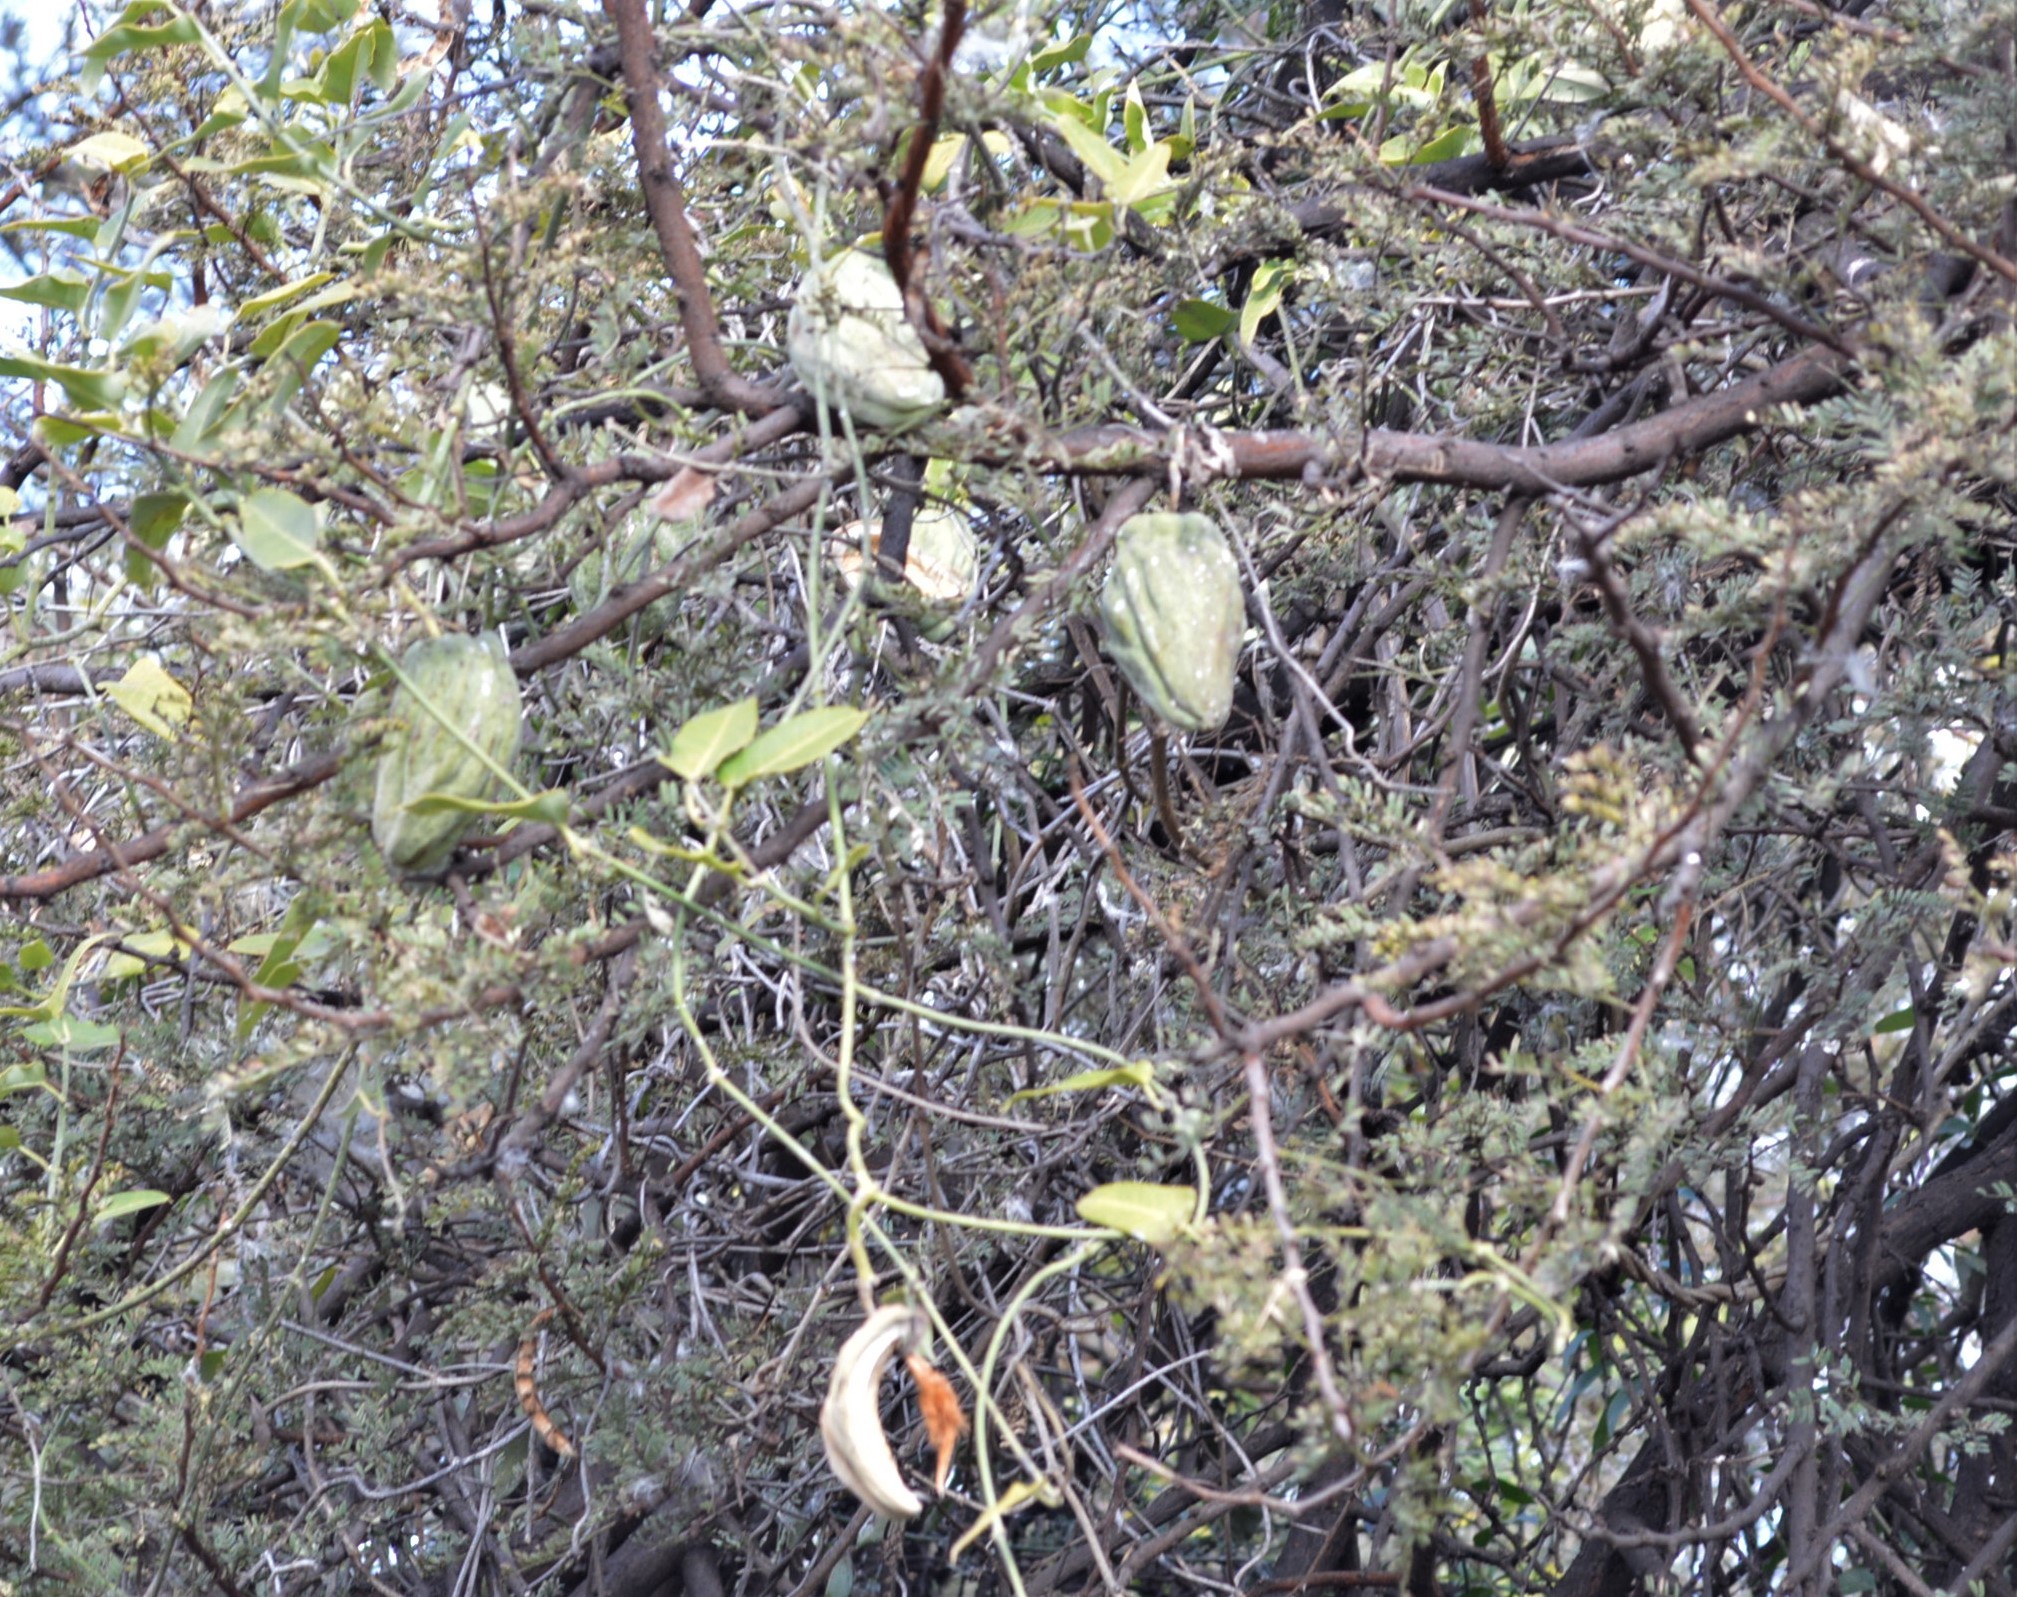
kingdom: Plantae
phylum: Tracheophyta
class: Magnoliopsida
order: Gentianales
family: Apocynaceae
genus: Araujia
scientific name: Araujia sericifera
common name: White bladderflower
